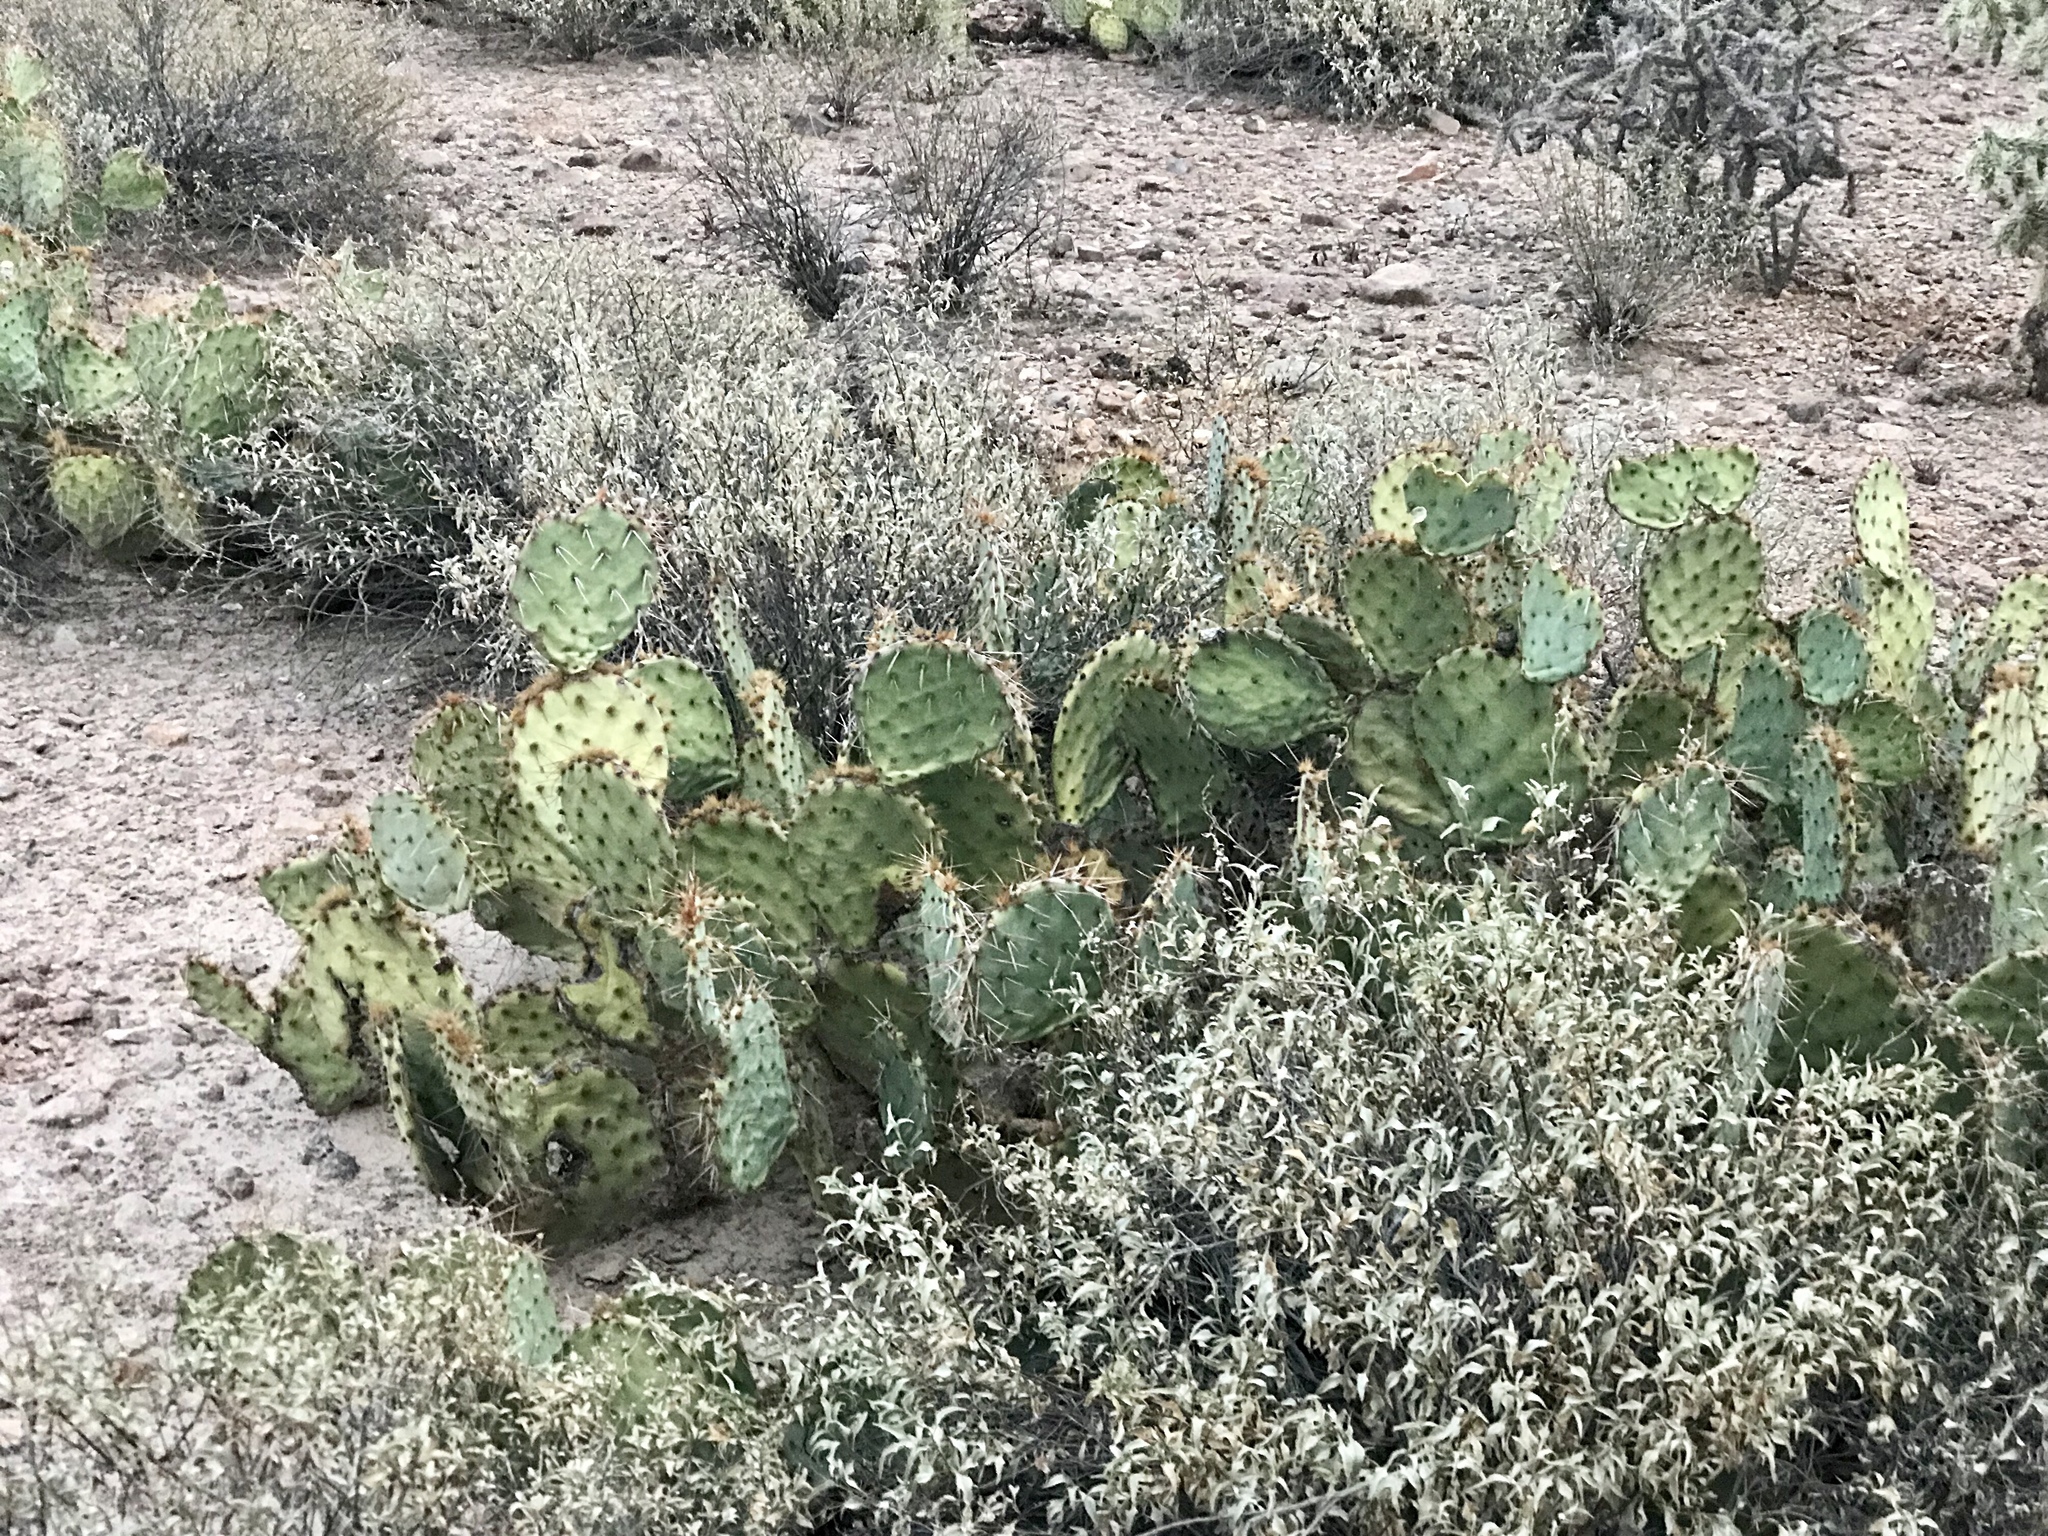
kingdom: Plantae
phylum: Tracheophyta
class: Magnoliopsida
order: Caryophyllales
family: Cactaceae
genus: Opuntia
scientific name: Opuntia phaeacantha
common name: New mexico prickly-pear
